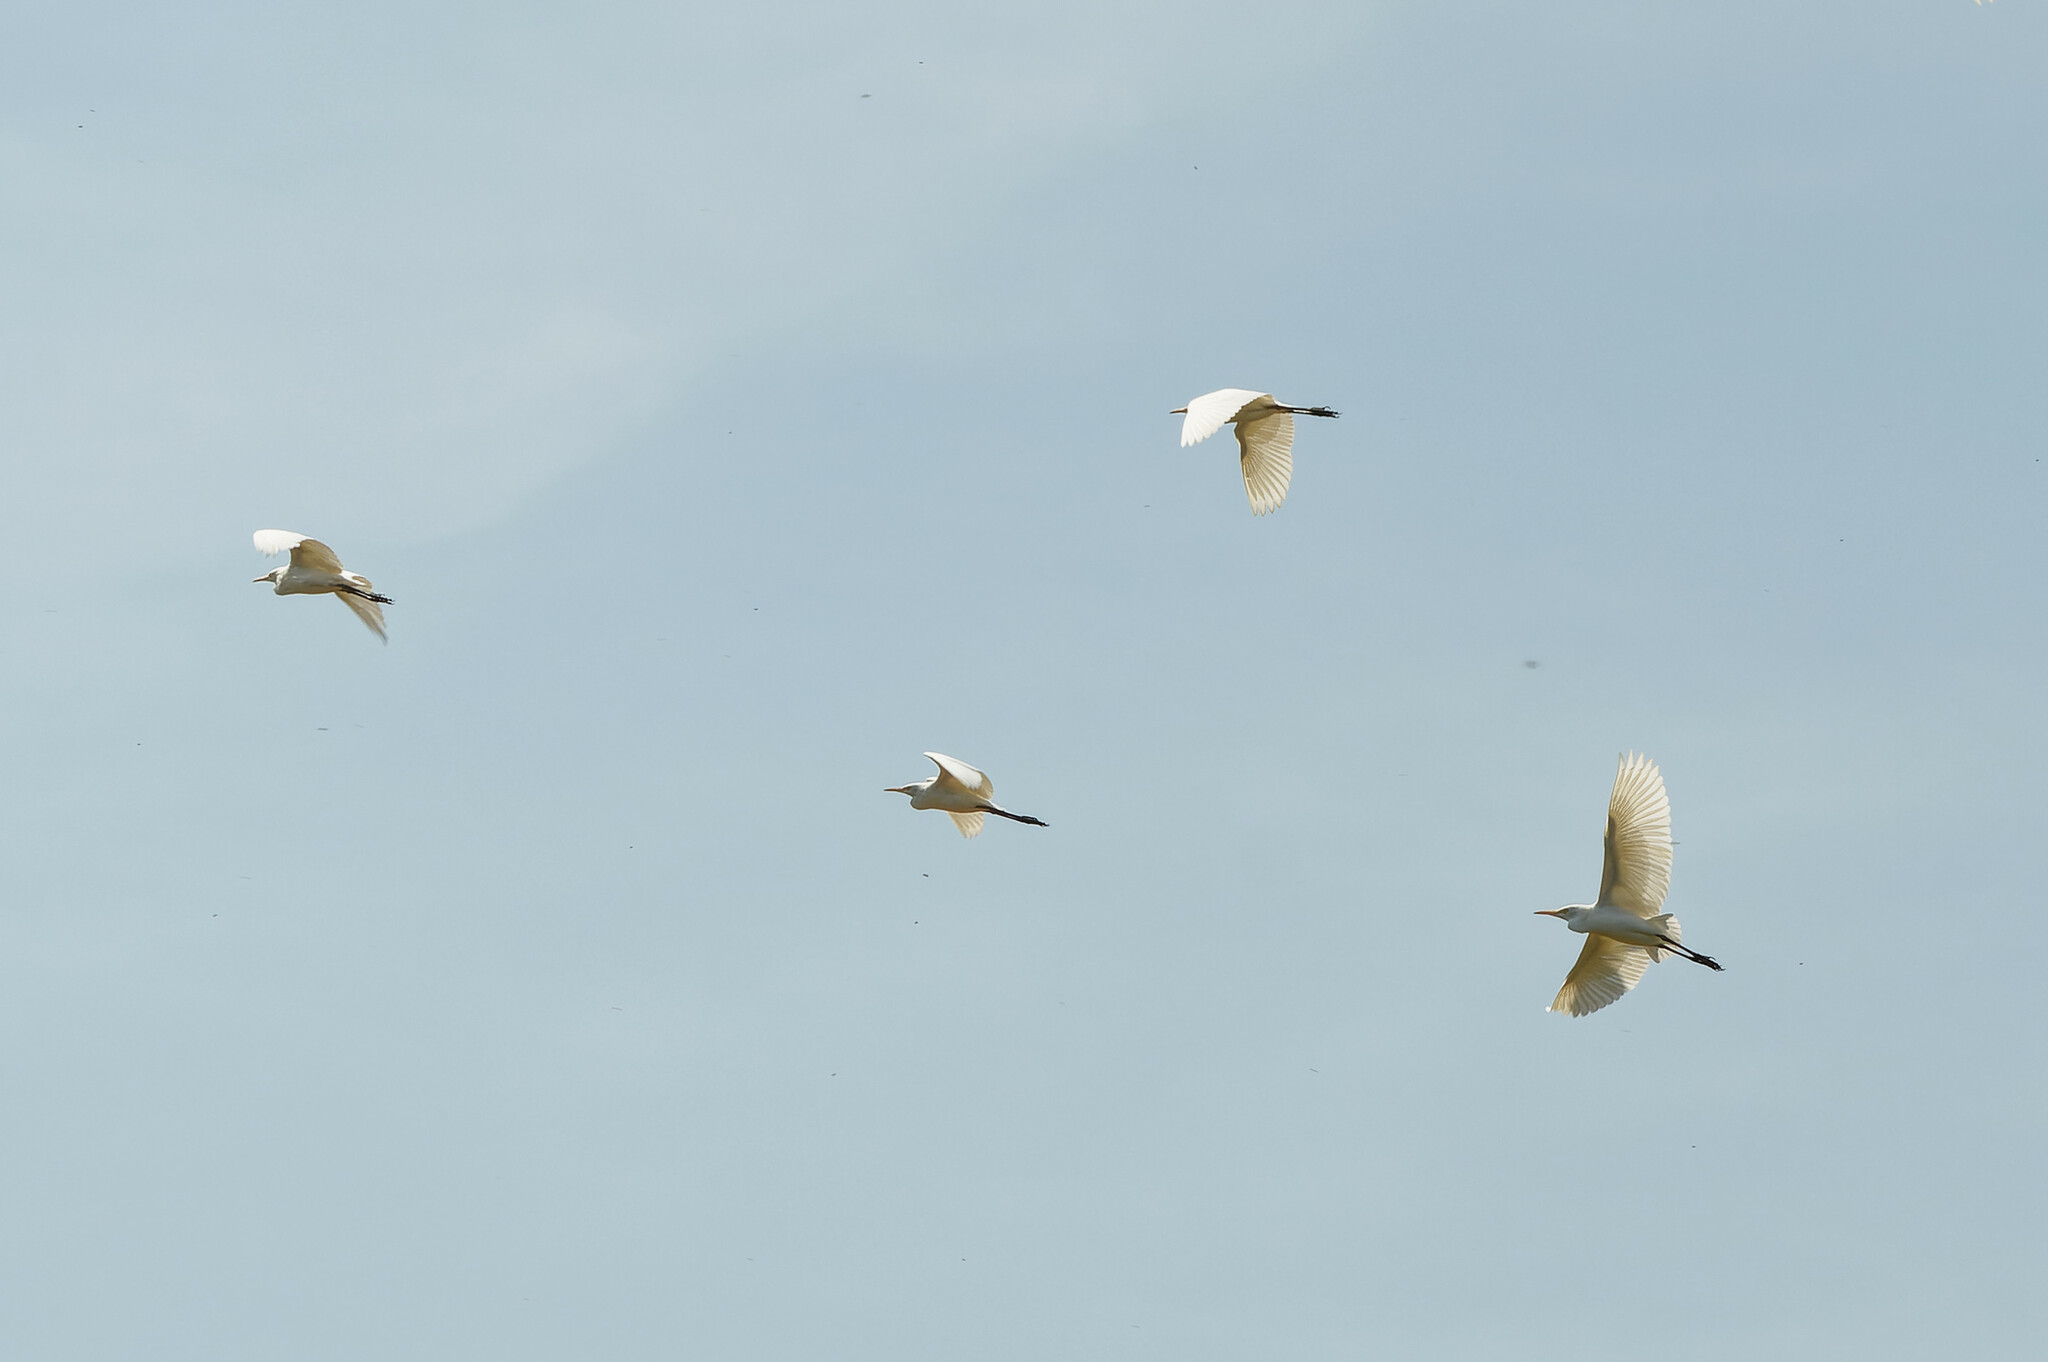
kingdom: Animalia
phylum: Chordata
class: Aves
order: Pelecaniformes
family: Ardeidae
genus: Bubulcus
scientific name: Bubulcus coromandus
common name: Eastern cattle egret
